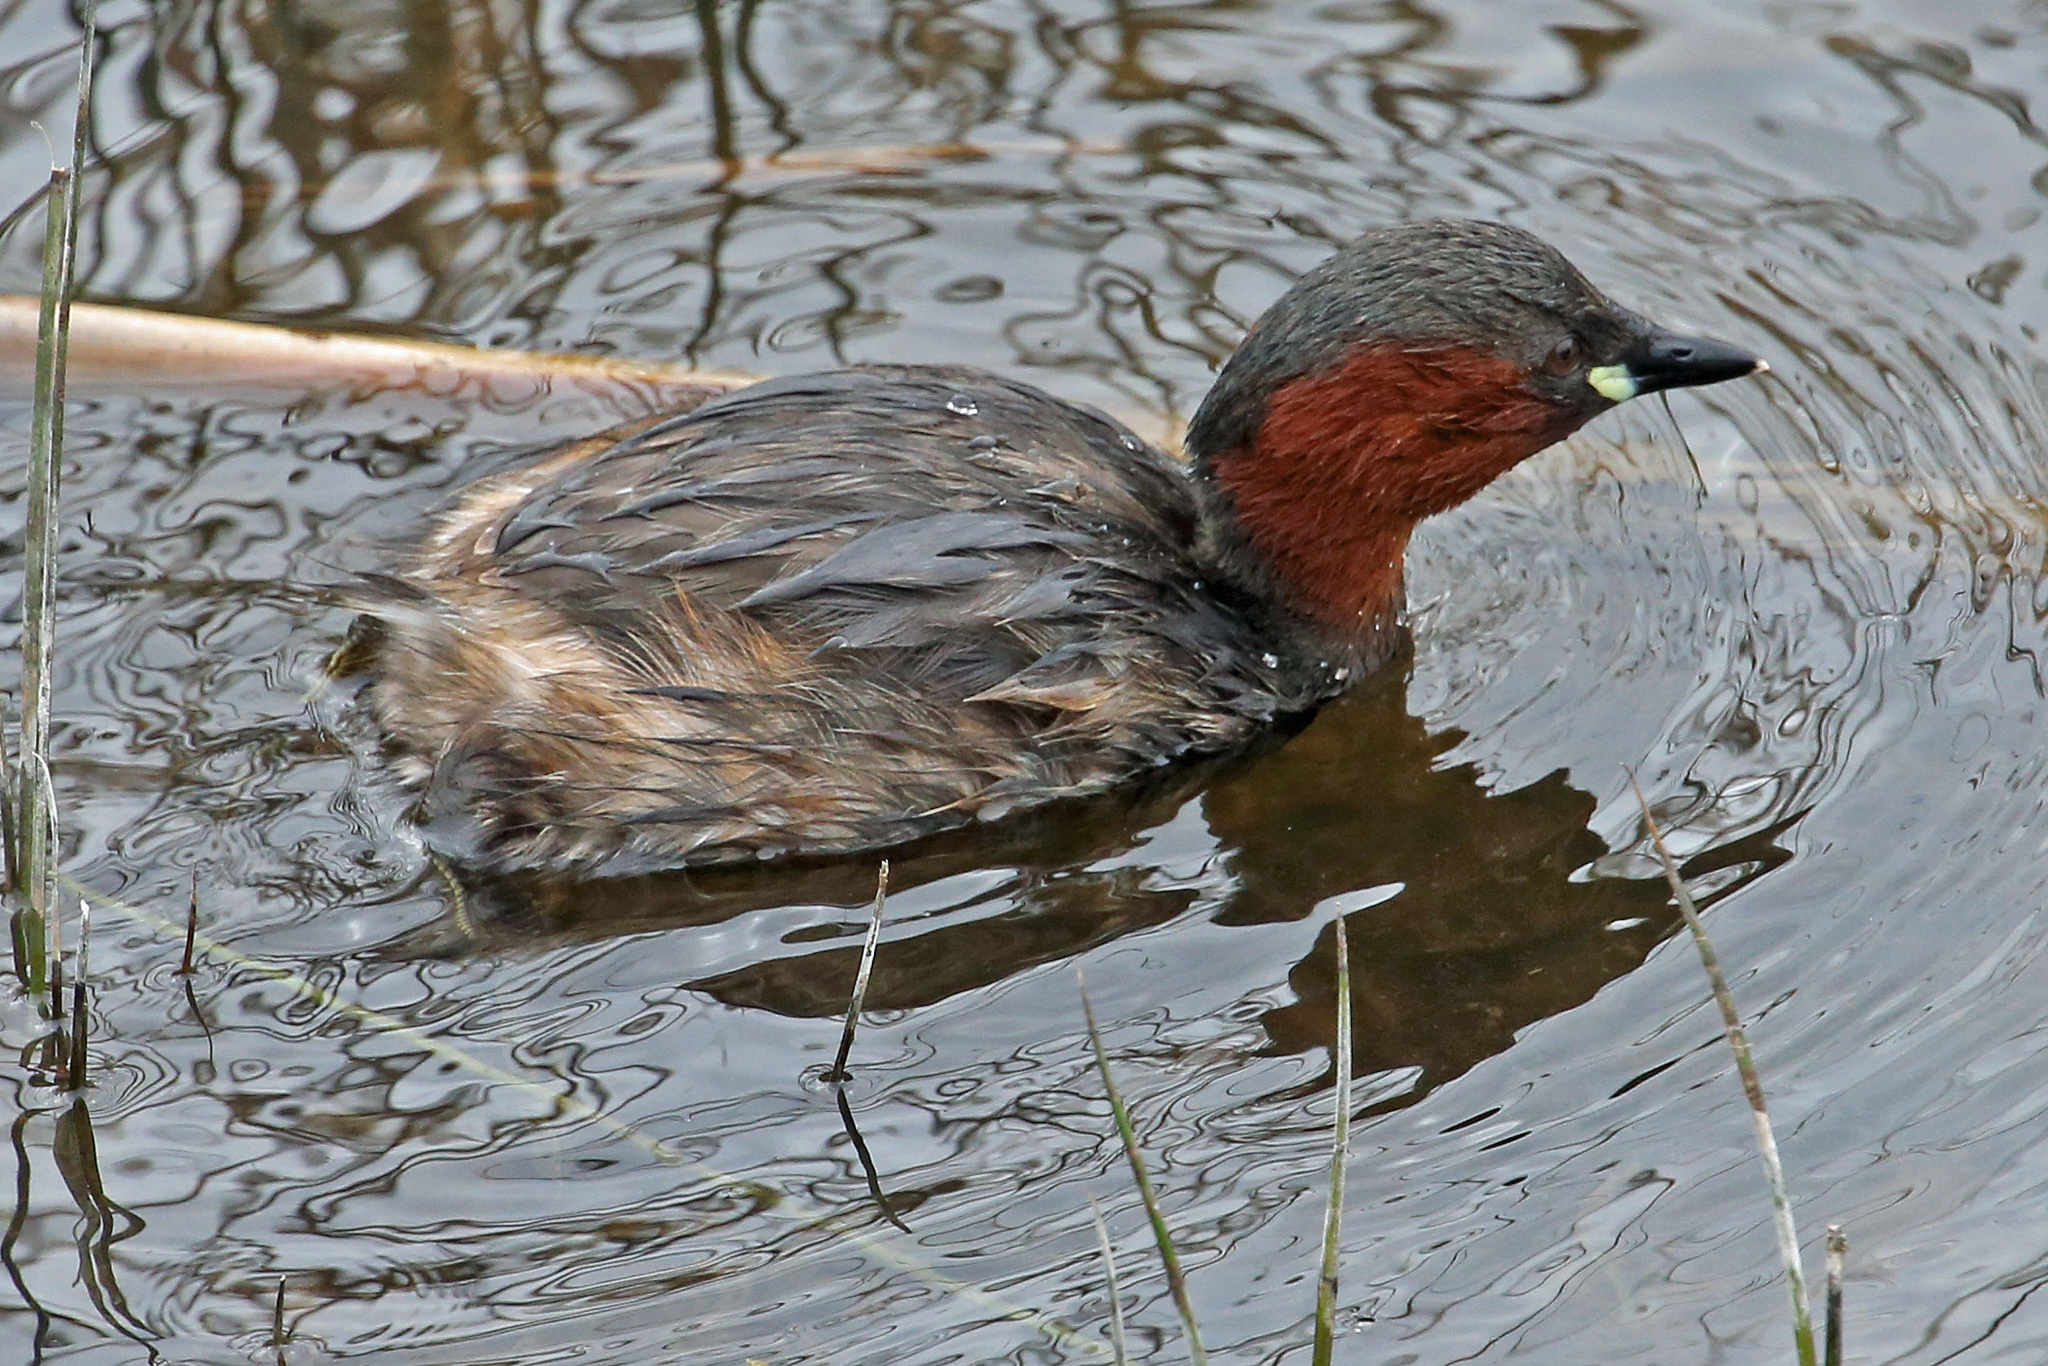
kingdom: Animalia
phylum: Chordata
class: Aves
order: Podicipediformes
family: Podicipedidae
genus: Tachybaptus
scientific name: Tachybaptus ruficollis
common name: Little grebe
